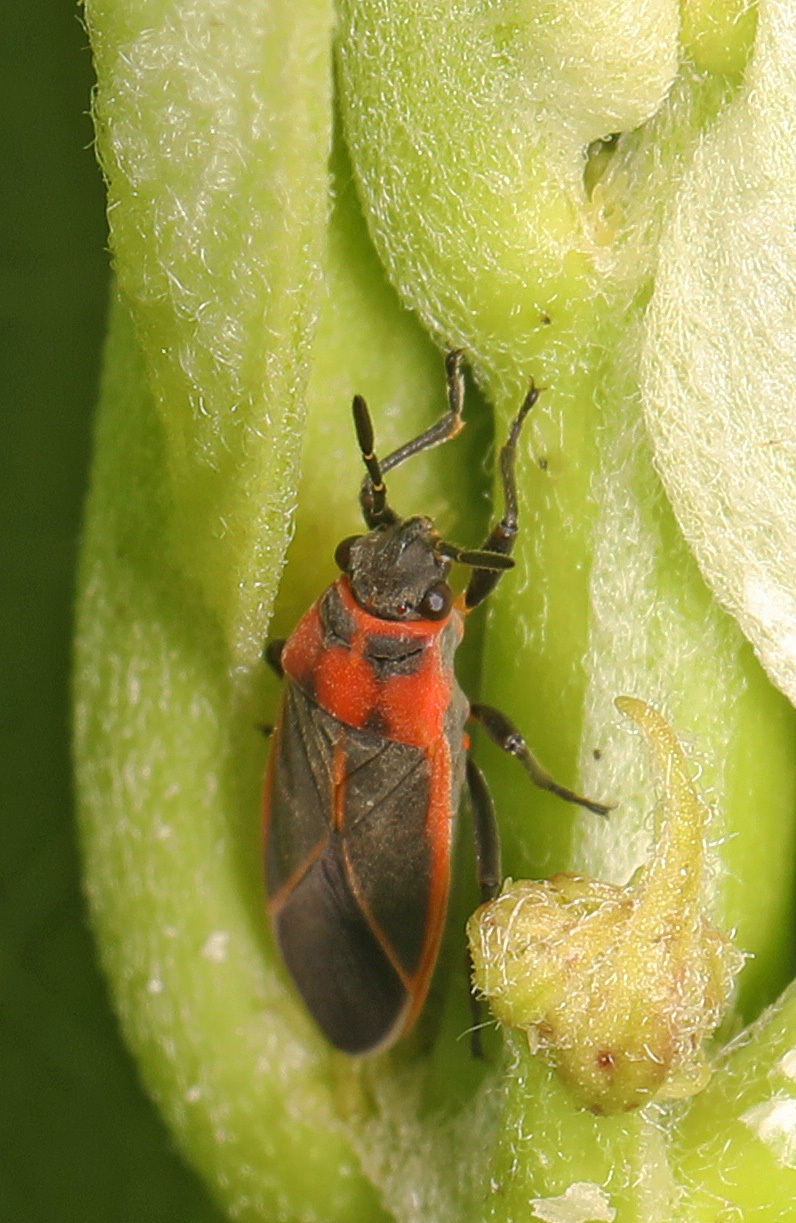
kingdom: Animalia
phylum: Arthropoda
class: Insecta
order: Hemiptera
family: Lygaeidae
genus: Ochrimnus
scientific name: Ochrimnus lineoloides
